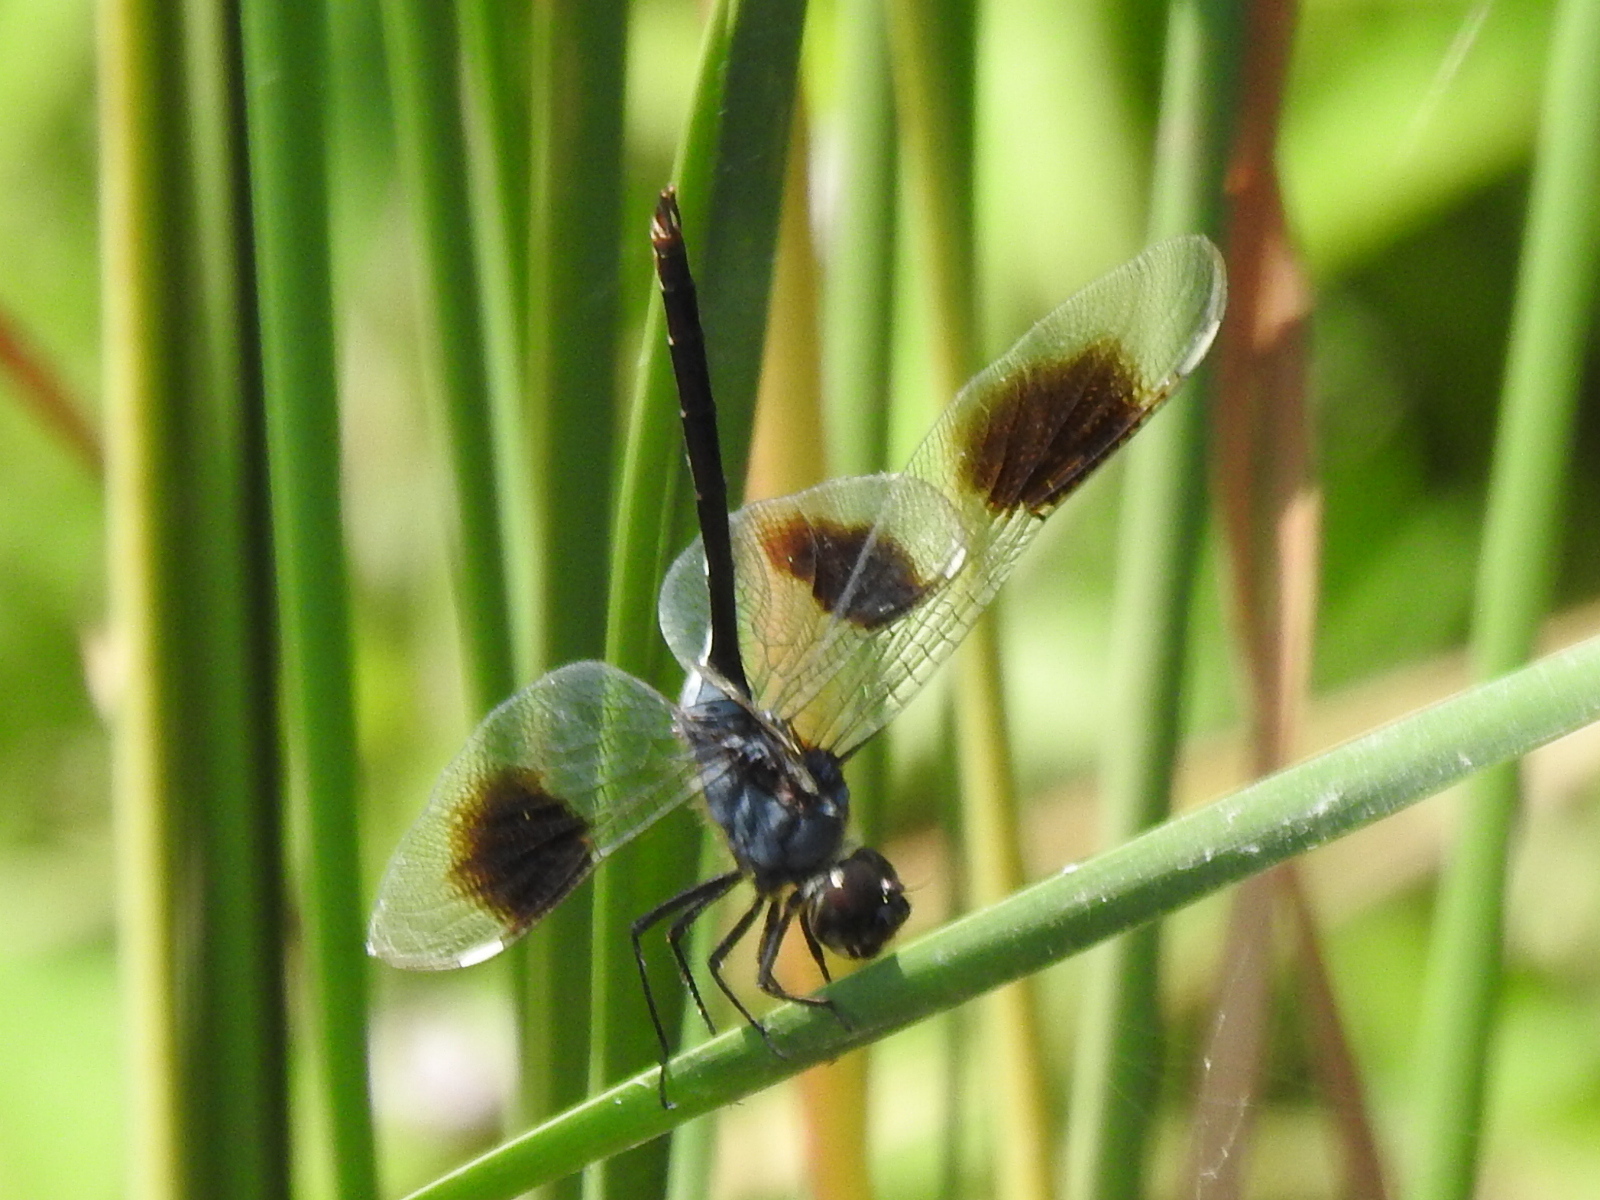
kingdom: Animalia
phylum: Arthropoda
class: Insecta
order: Odonata
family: Libellulidae
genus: Brachymesia
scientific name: Brachymesia gravida
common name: Four-spotted pennant
